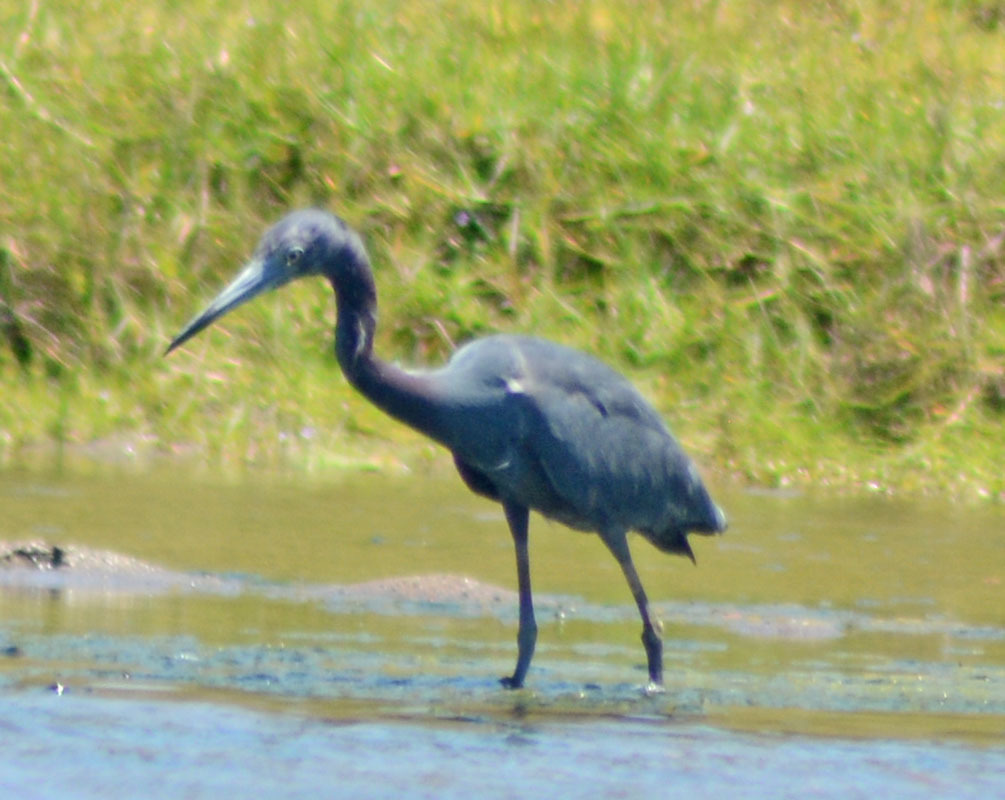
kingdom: Animalia
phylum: Chordata
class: Aves
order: Pelecaniformes
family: Ardeidae
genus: Egretta
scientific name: Egretta caerulea
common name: Little blue heron
